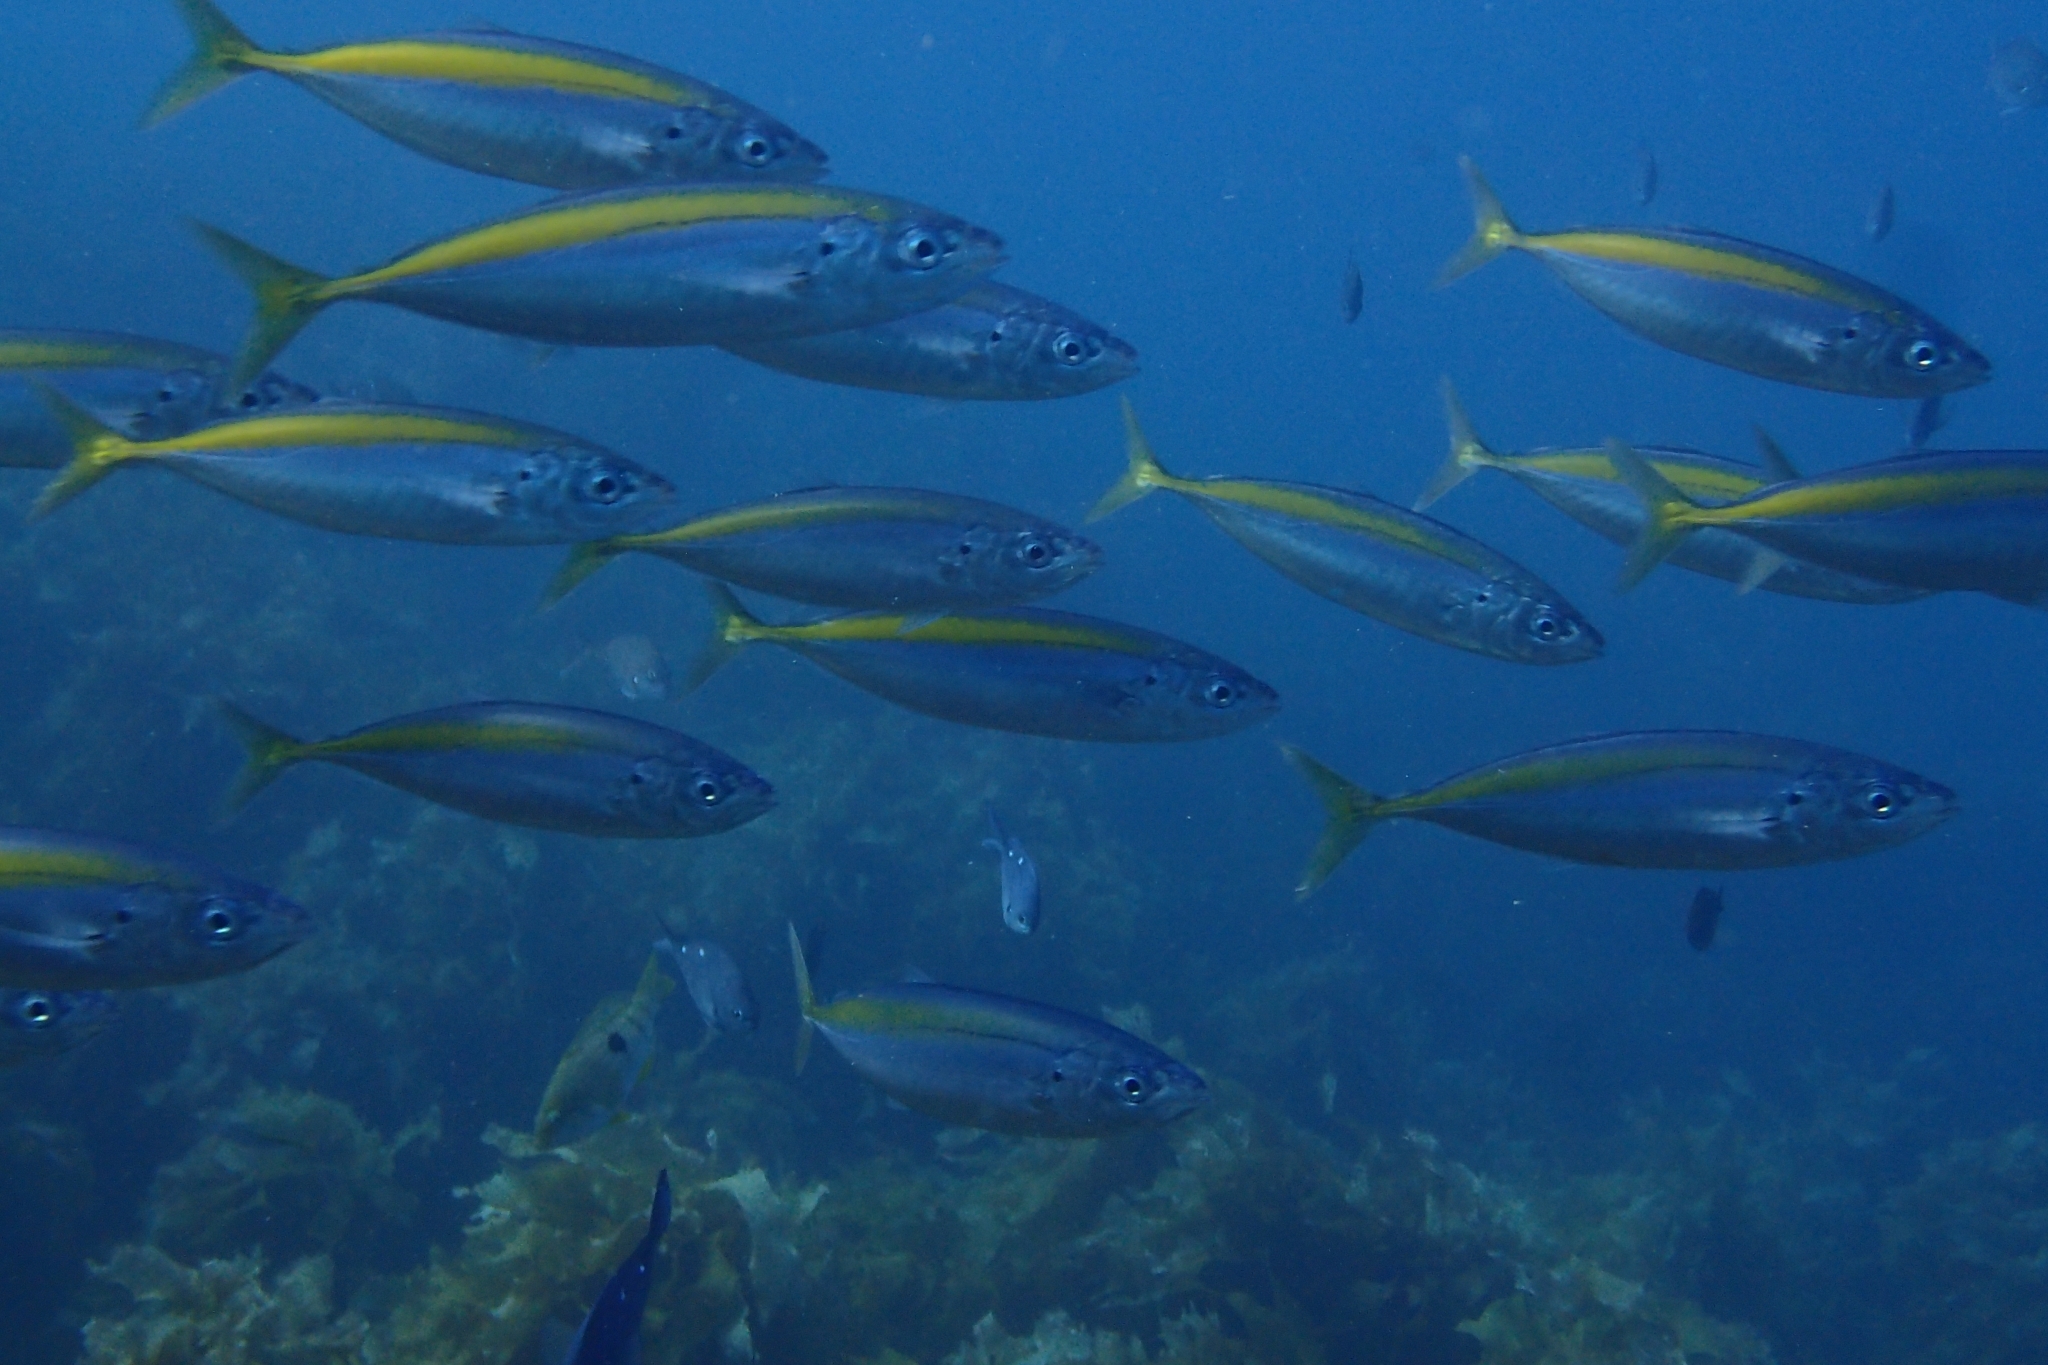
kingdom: Animalia
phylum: Chordata
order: Perciformes
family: Carangidae
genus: Decapterus
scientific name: Decapterus koheru
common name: Koheru
